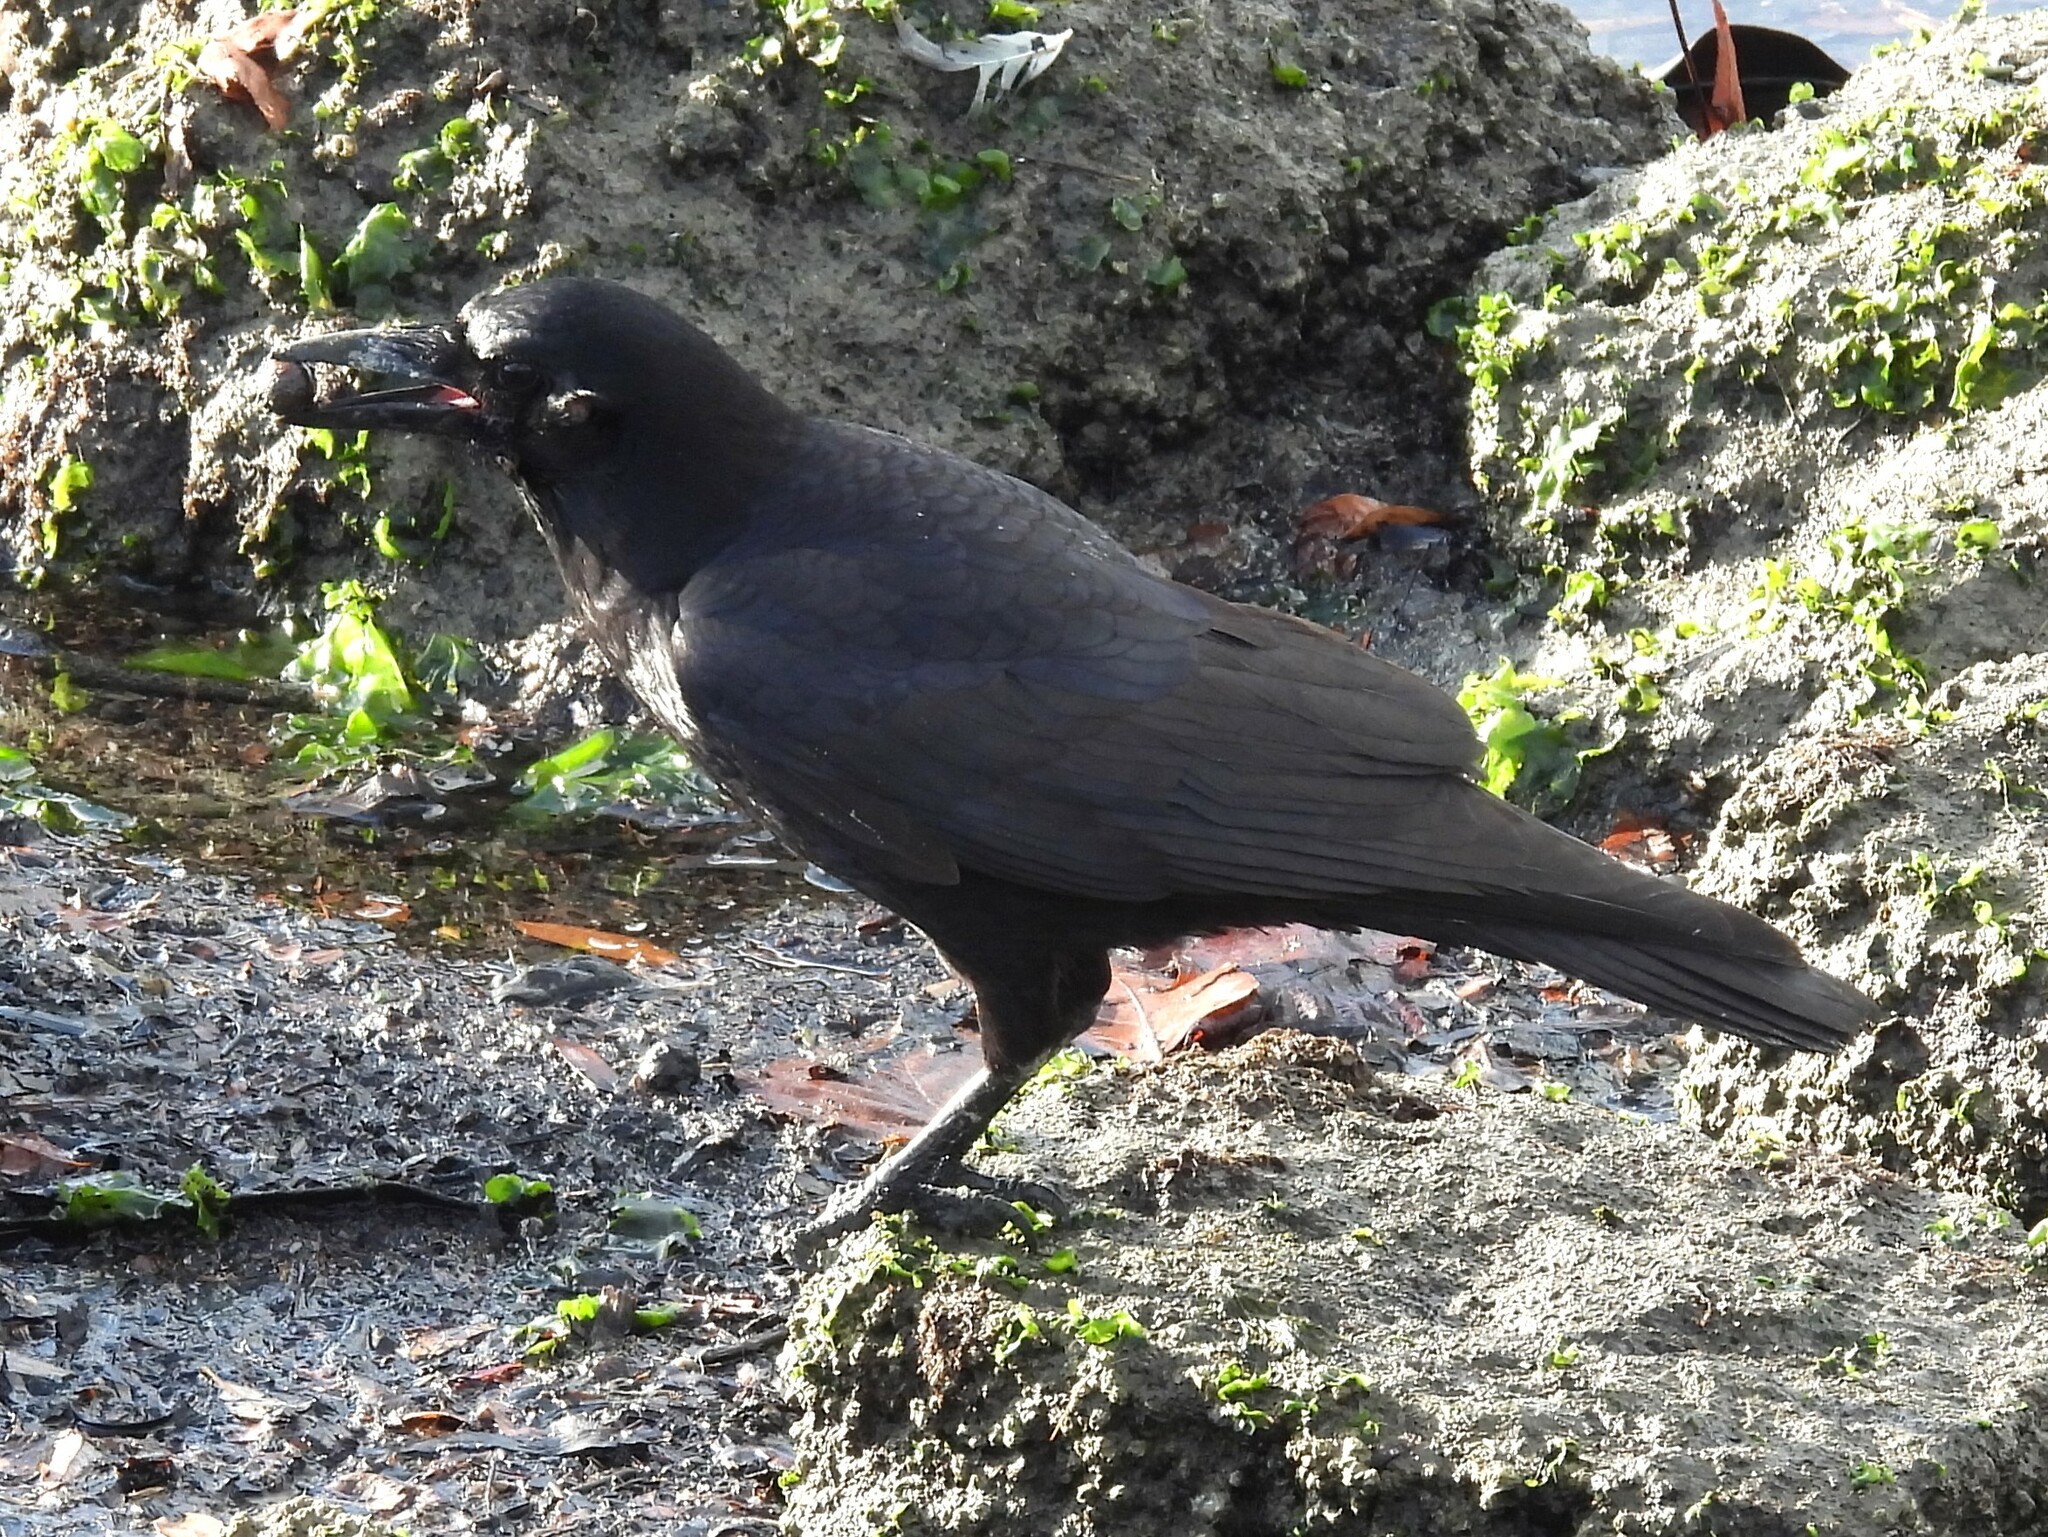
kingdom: Animalia
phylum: Chordata
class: Aves
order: Passeriformes
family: Corvidae
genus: Corvus
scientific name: Corvus brachyrhynchos
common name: American crow
